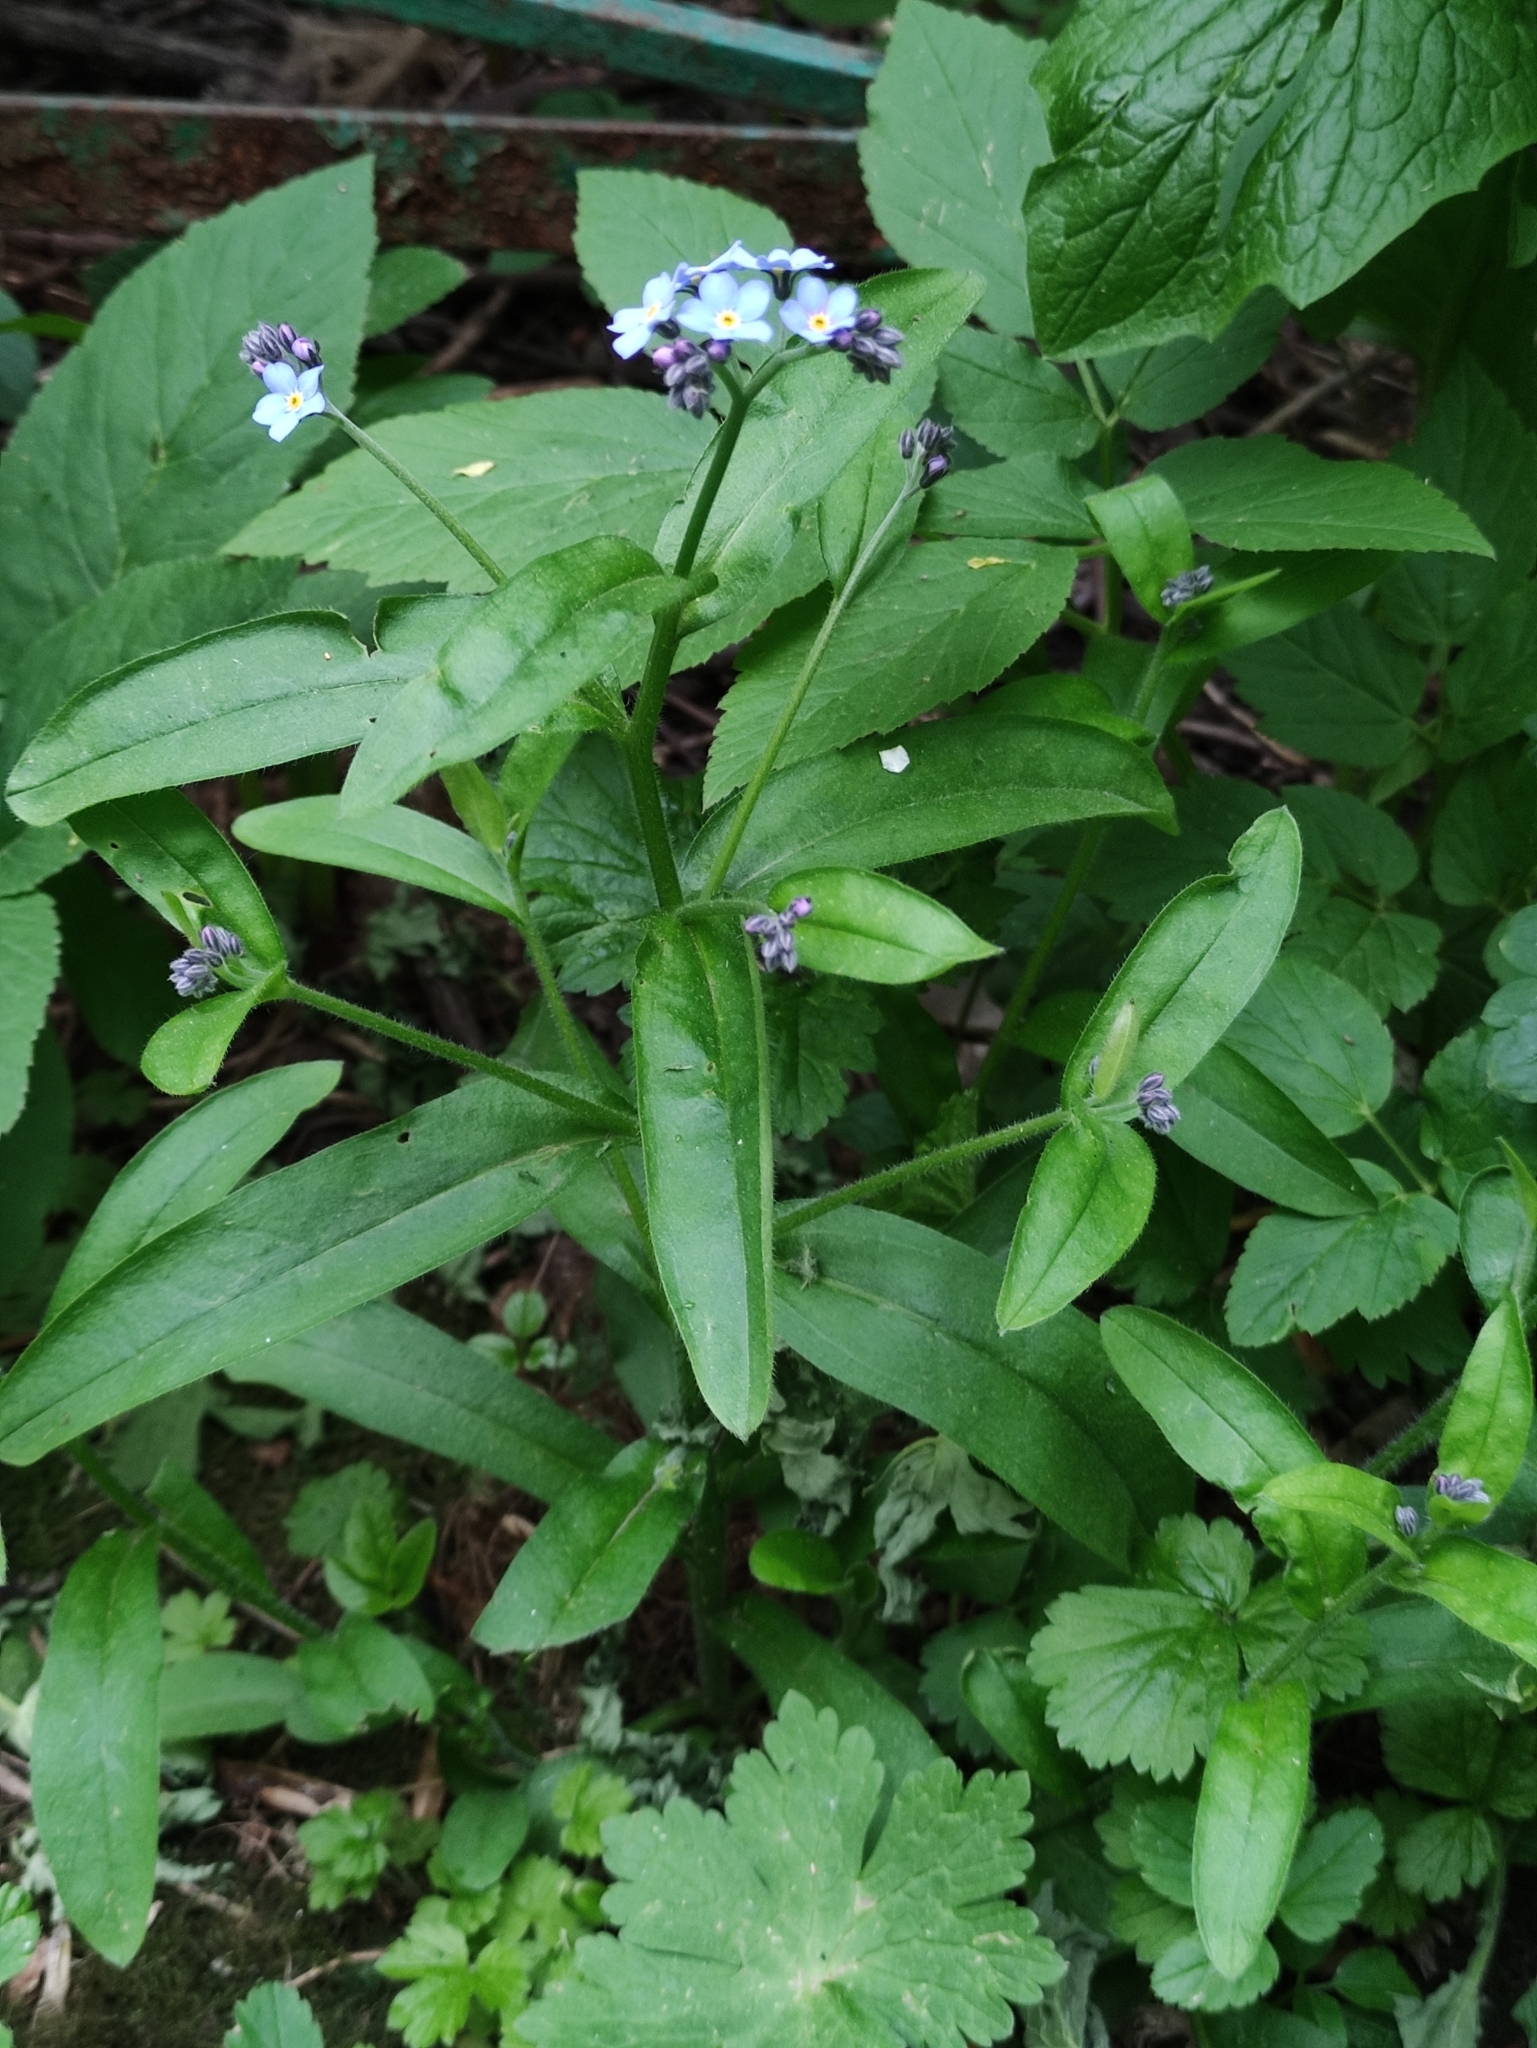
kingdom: Plantae
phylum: Tracheophyta
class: Magnoliopsida
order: Boraginales
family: Boraginaceae
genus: Myosotis
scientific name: Myosotis sylvatica
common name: Wood forget-me-not
